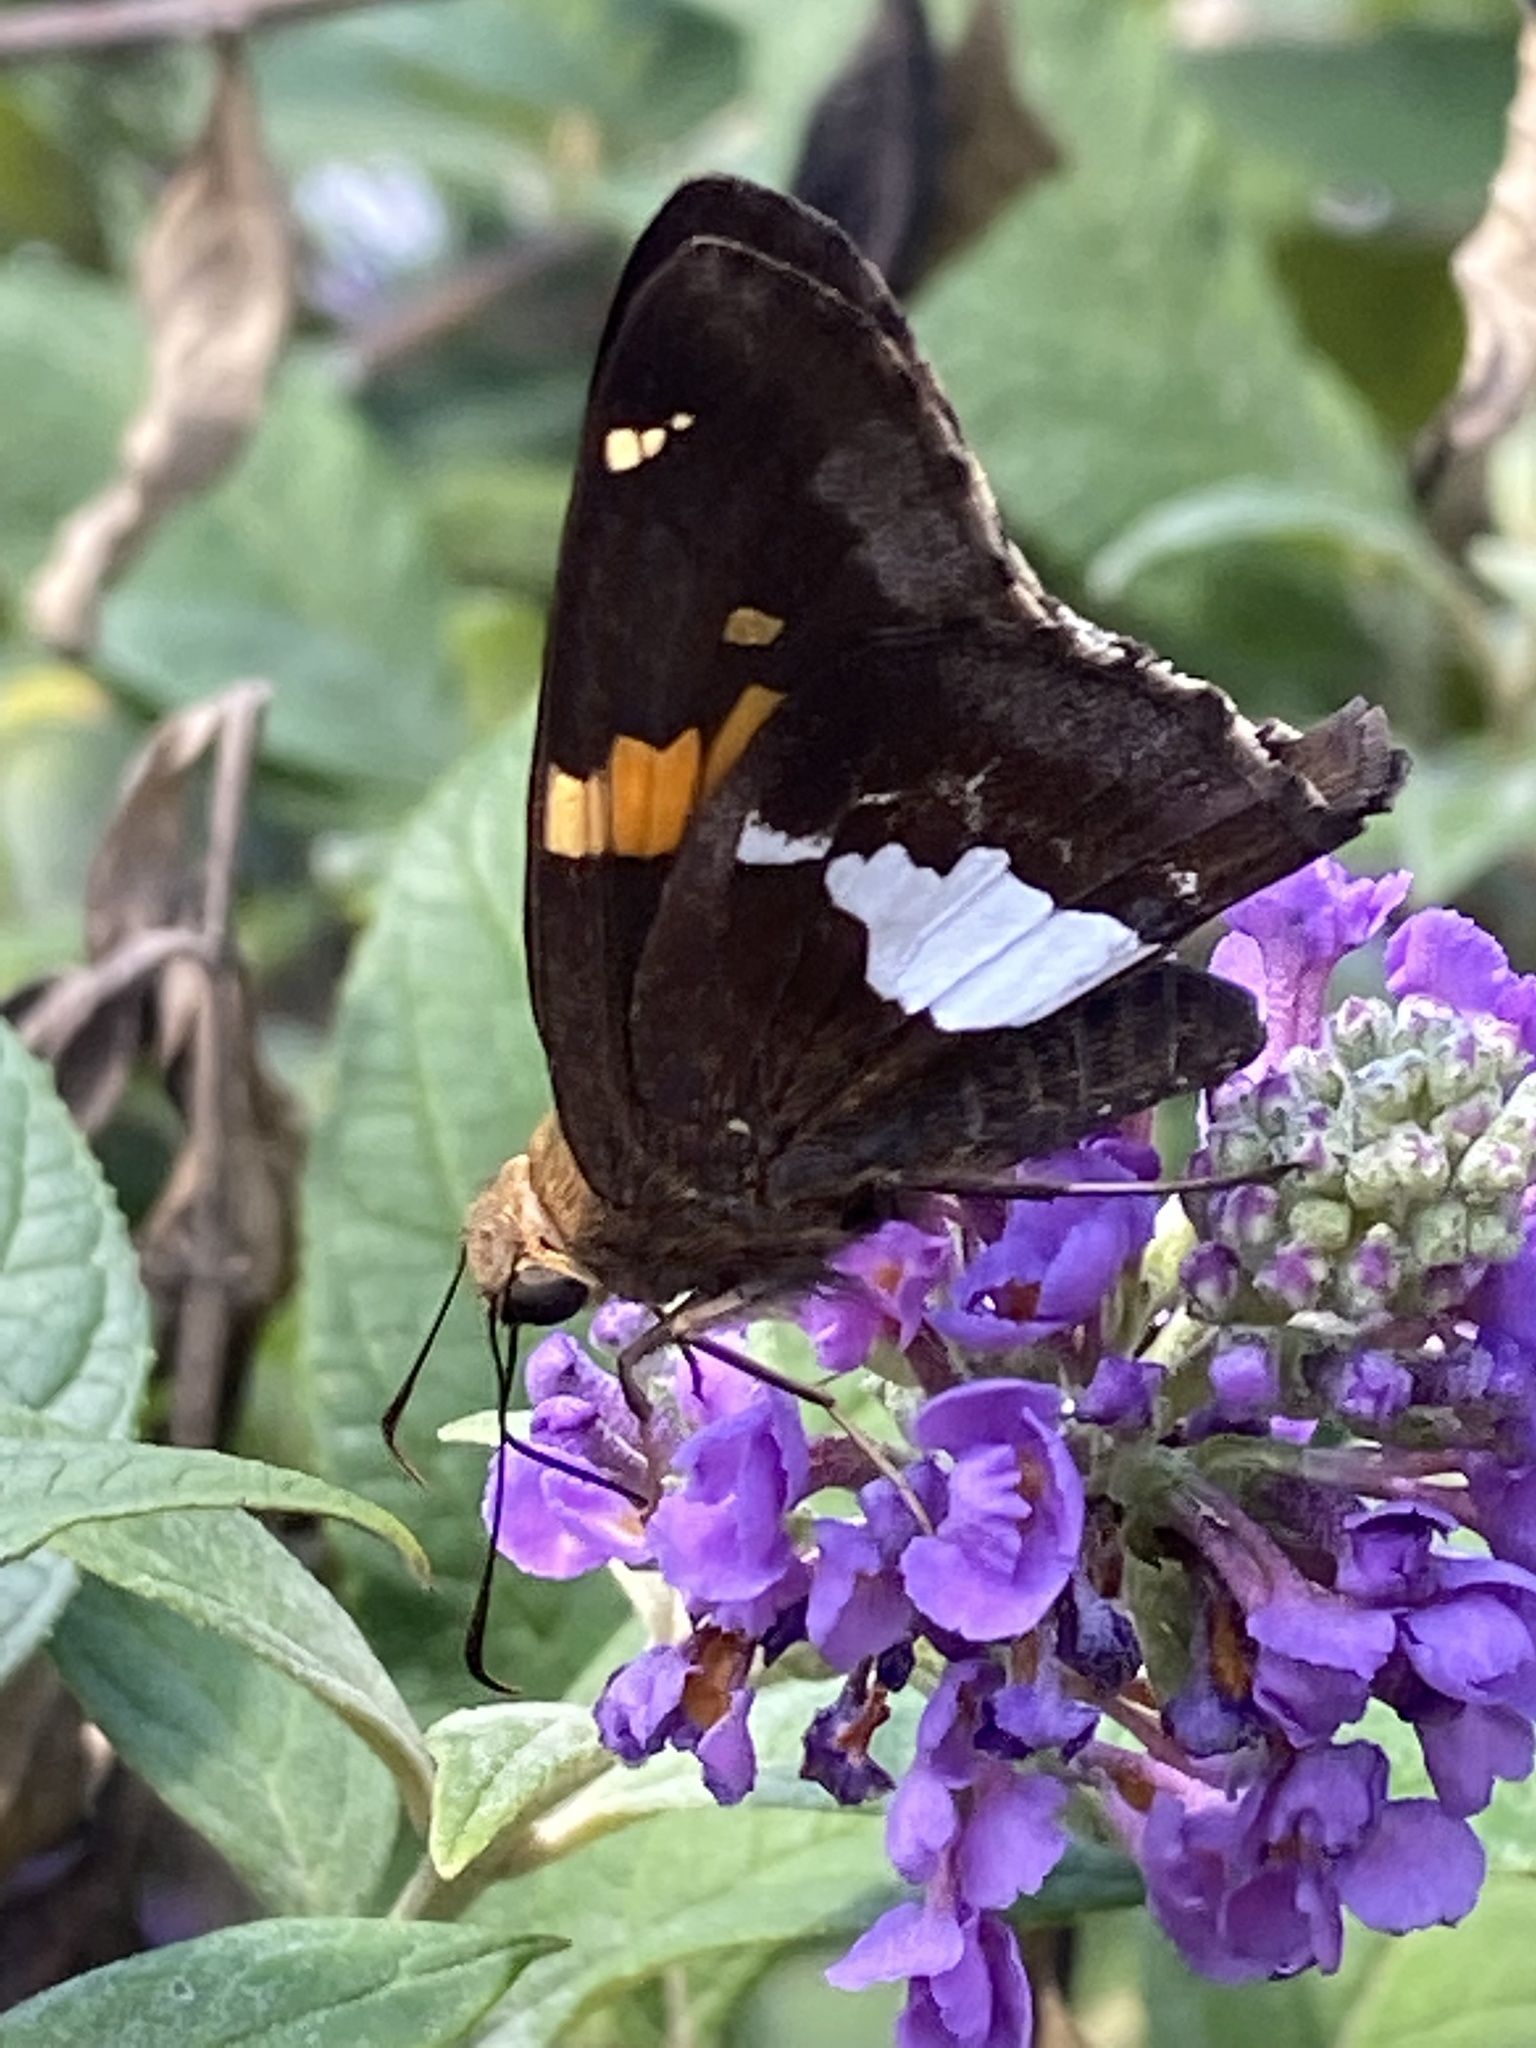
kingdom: Animalia
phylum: Arthropoda
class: Insecta
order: Lepidoptera
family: Hesperiidae
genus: Epargyreus
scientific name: Epargyreus clarus
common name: Silver-spotted skipper
